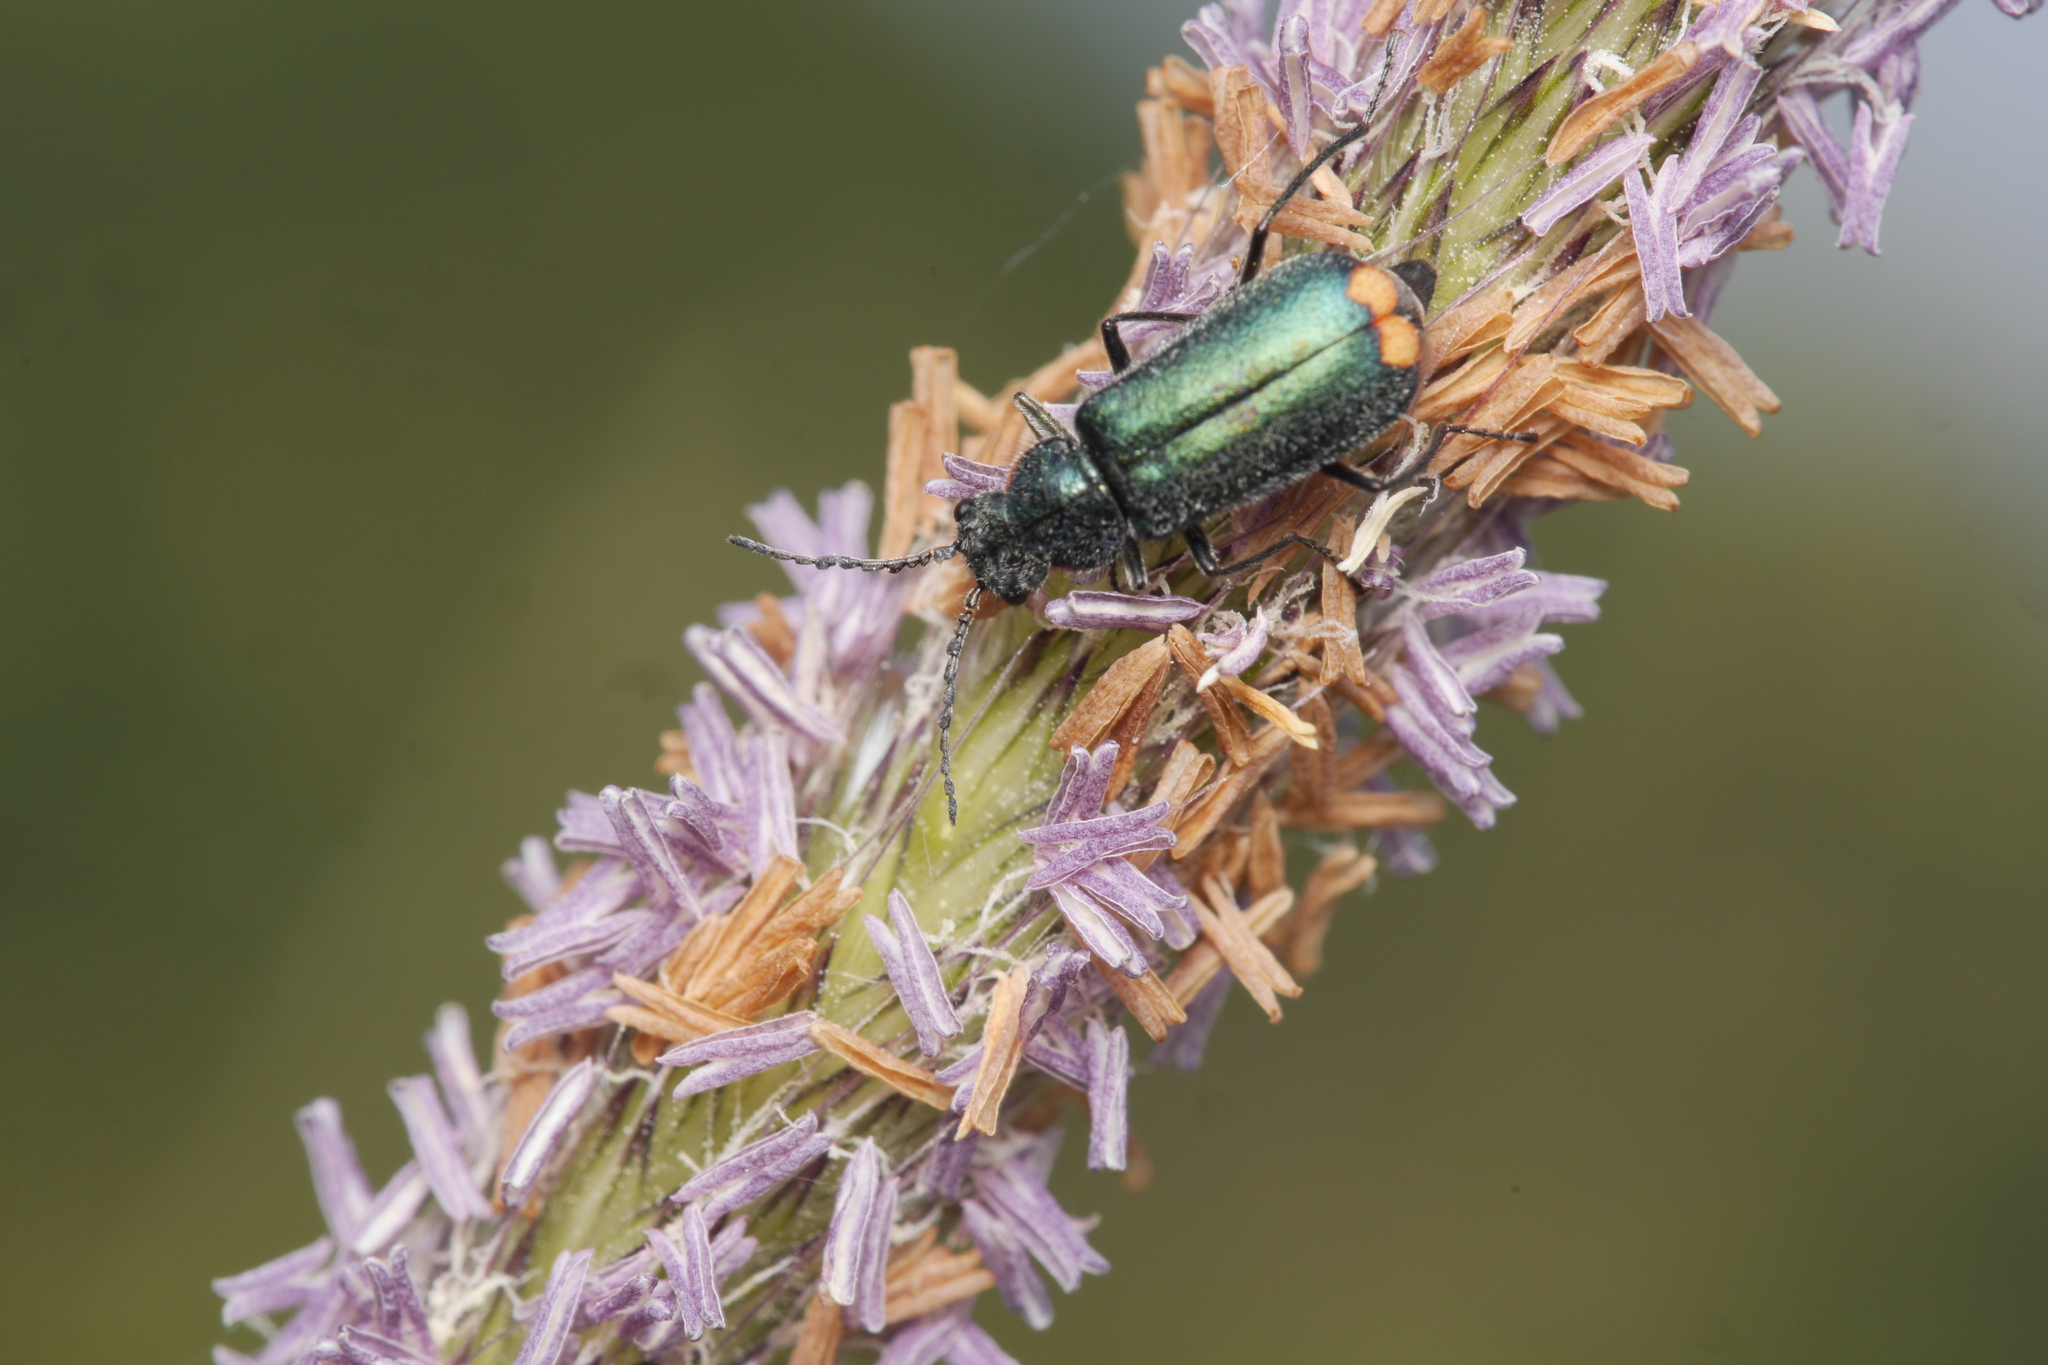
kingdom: Animalia
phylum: Arthropoda
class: Insecta
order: Coleoptera
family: Melyridae
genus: Malachius
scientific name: Malachius bipustulatus
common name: Malachite beetle
